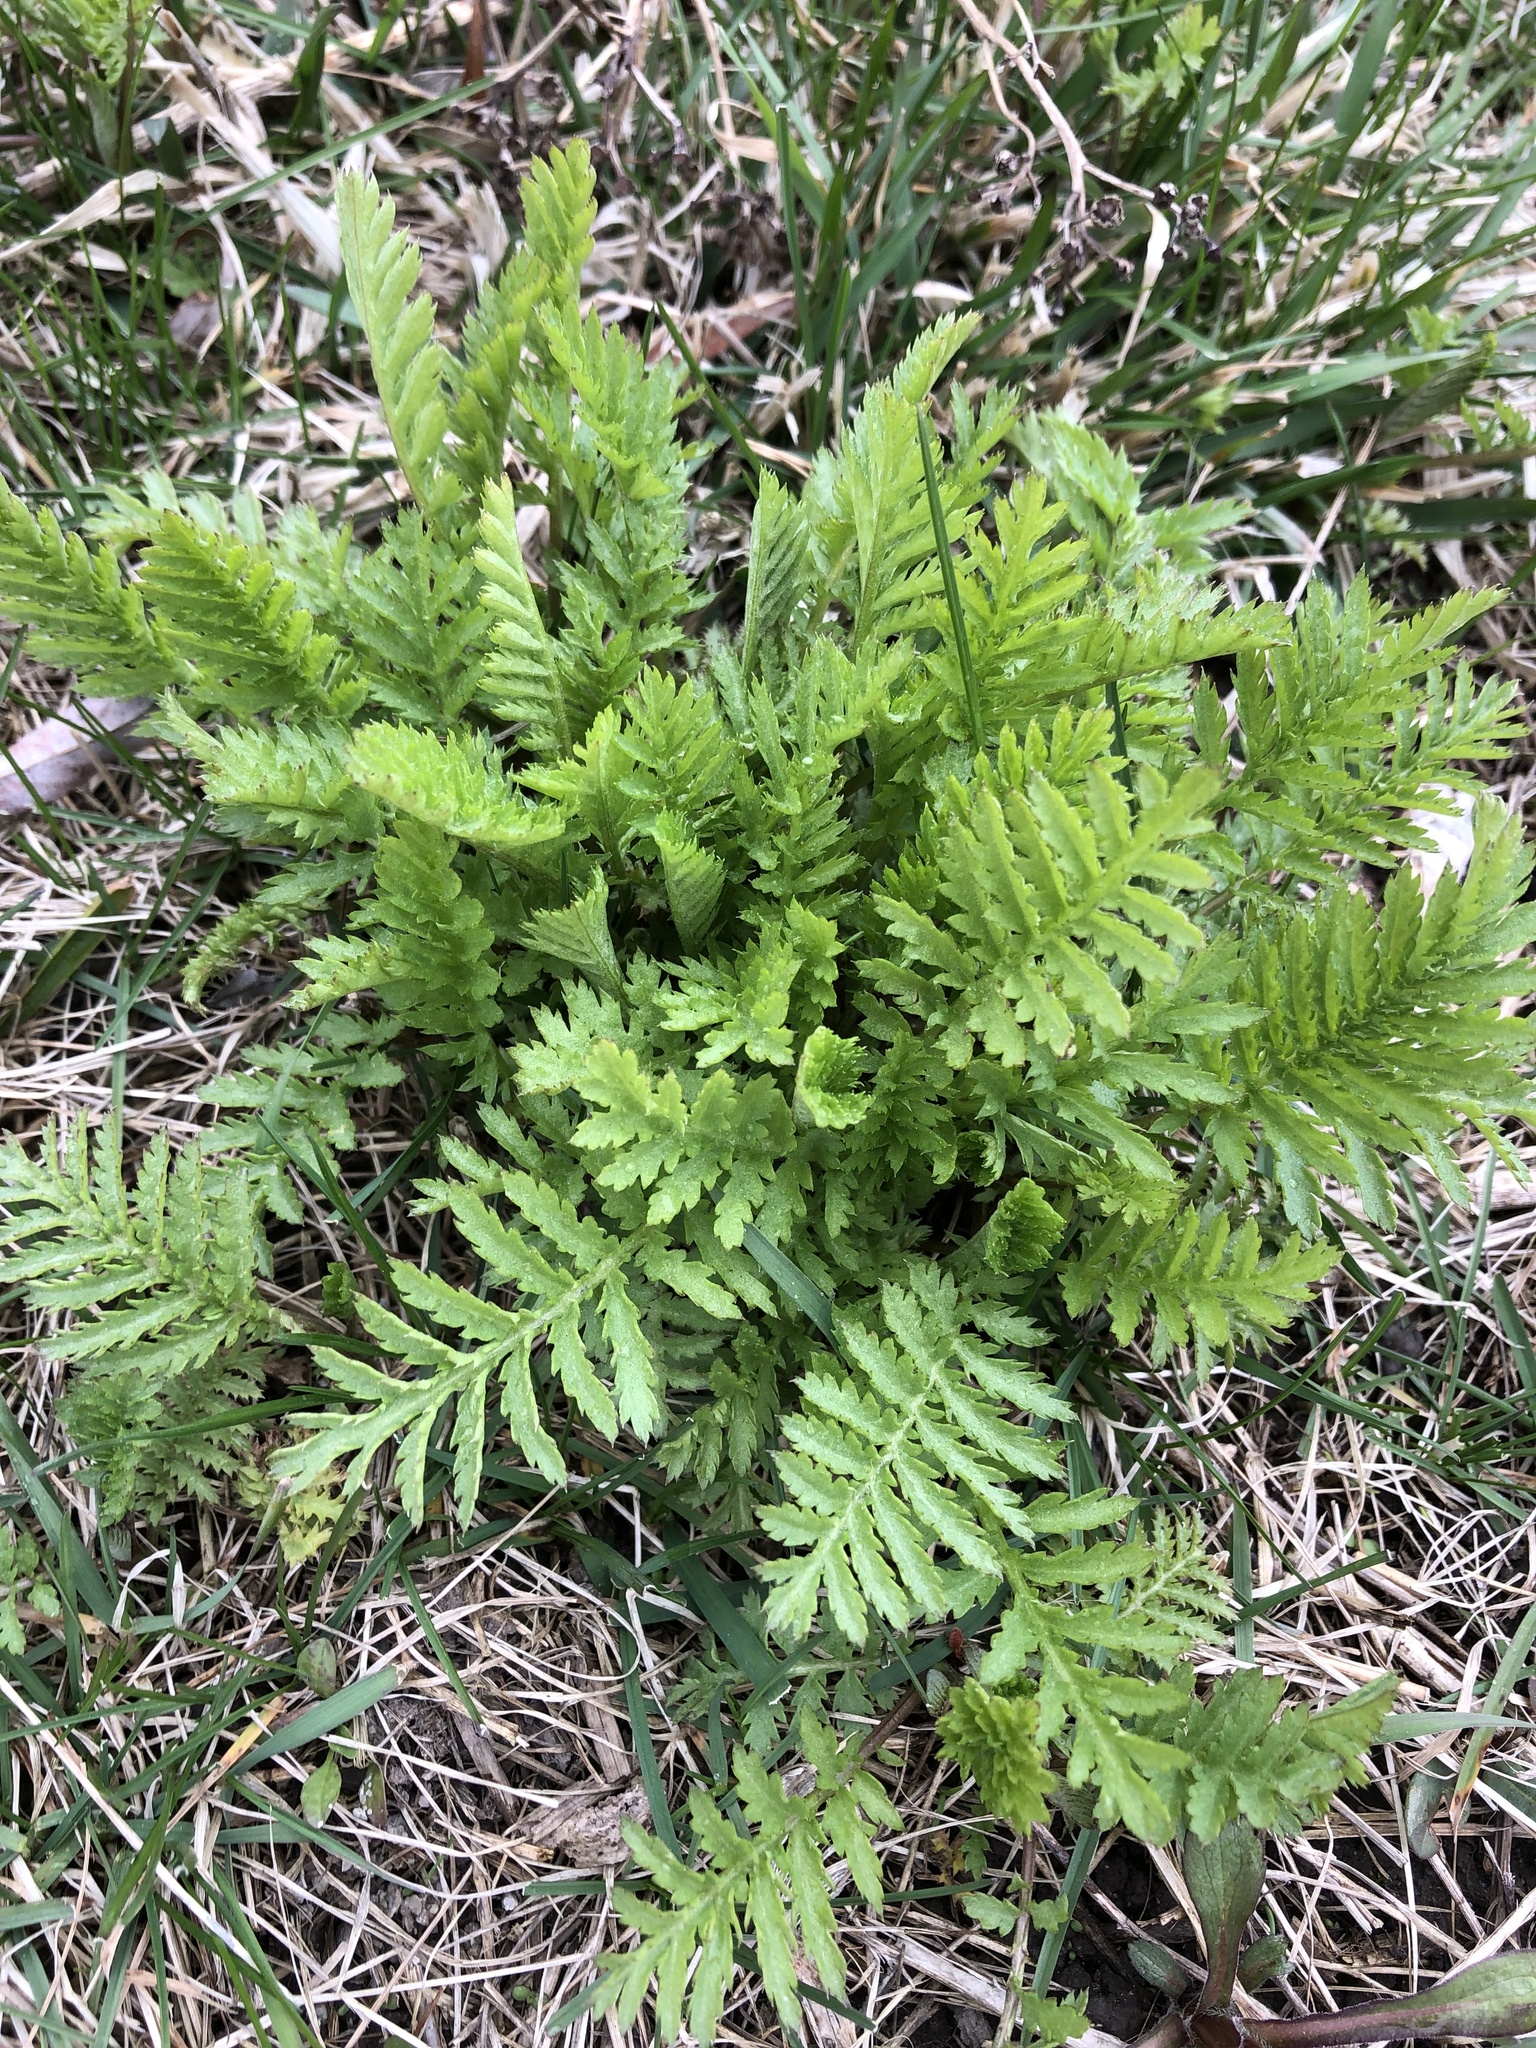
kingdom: Plantae
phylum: Tracheophyta
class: Magnoliopsida
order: Asterales
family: Asteraceae
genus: Tanacetum
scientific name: Tanacetum vulgare
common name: Common tansy
